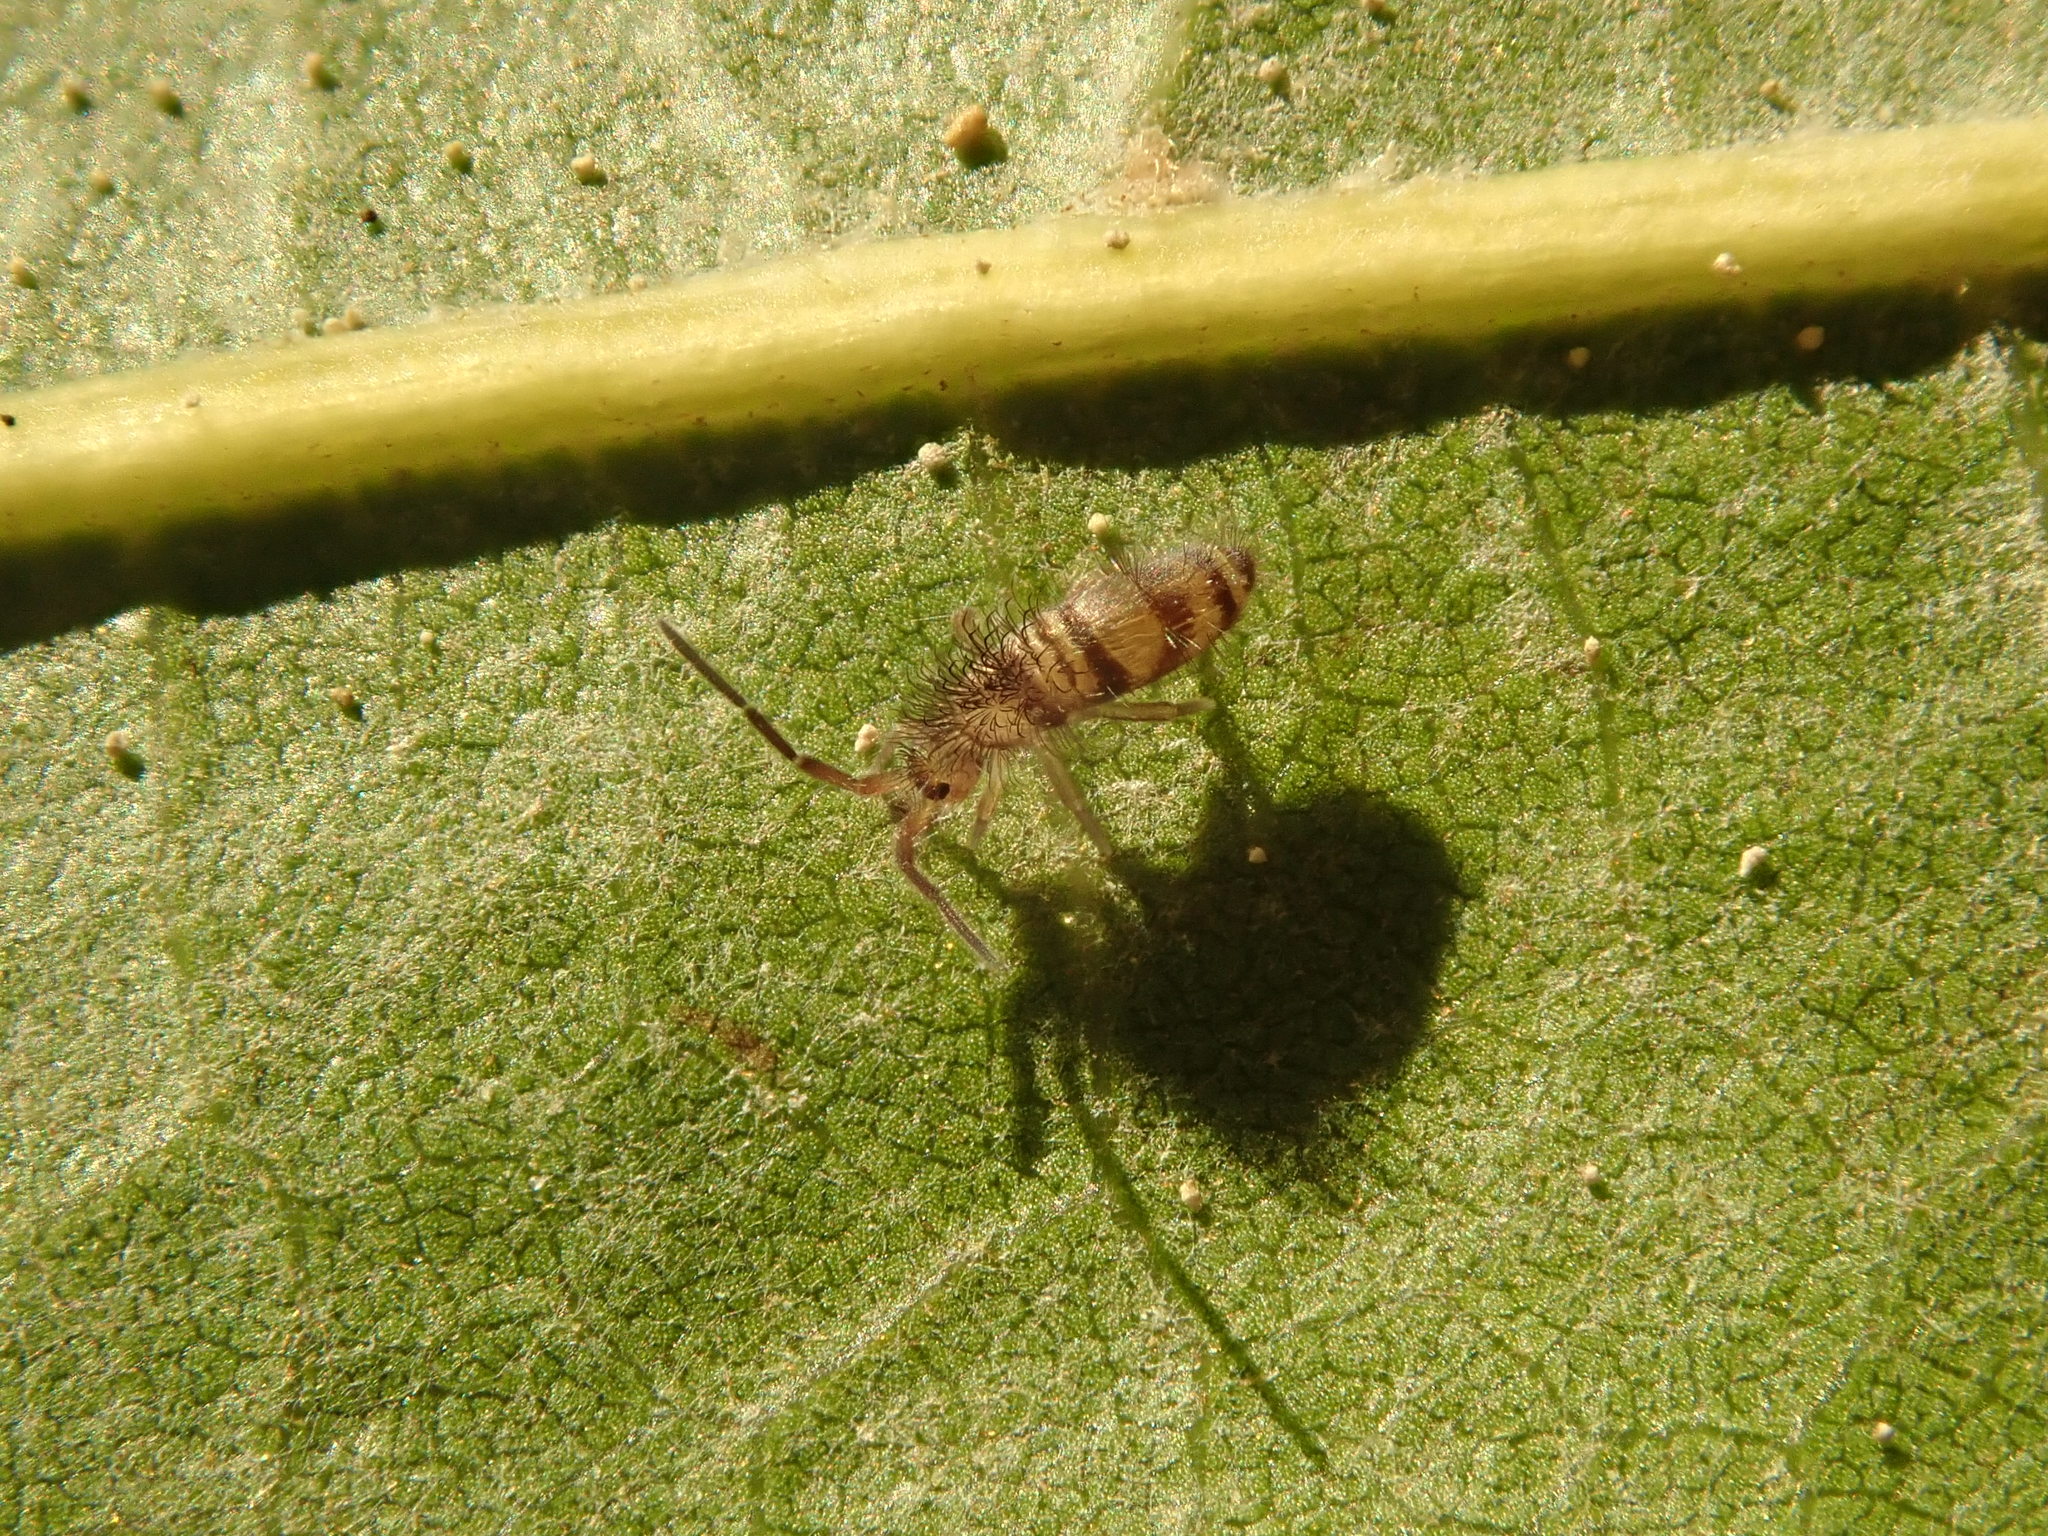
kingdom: Animalia
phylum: Arthropoda
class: Collembola
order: Entomobryomorpha
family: Entomobryidae
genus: Homidia
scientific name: Homidia sauteri
